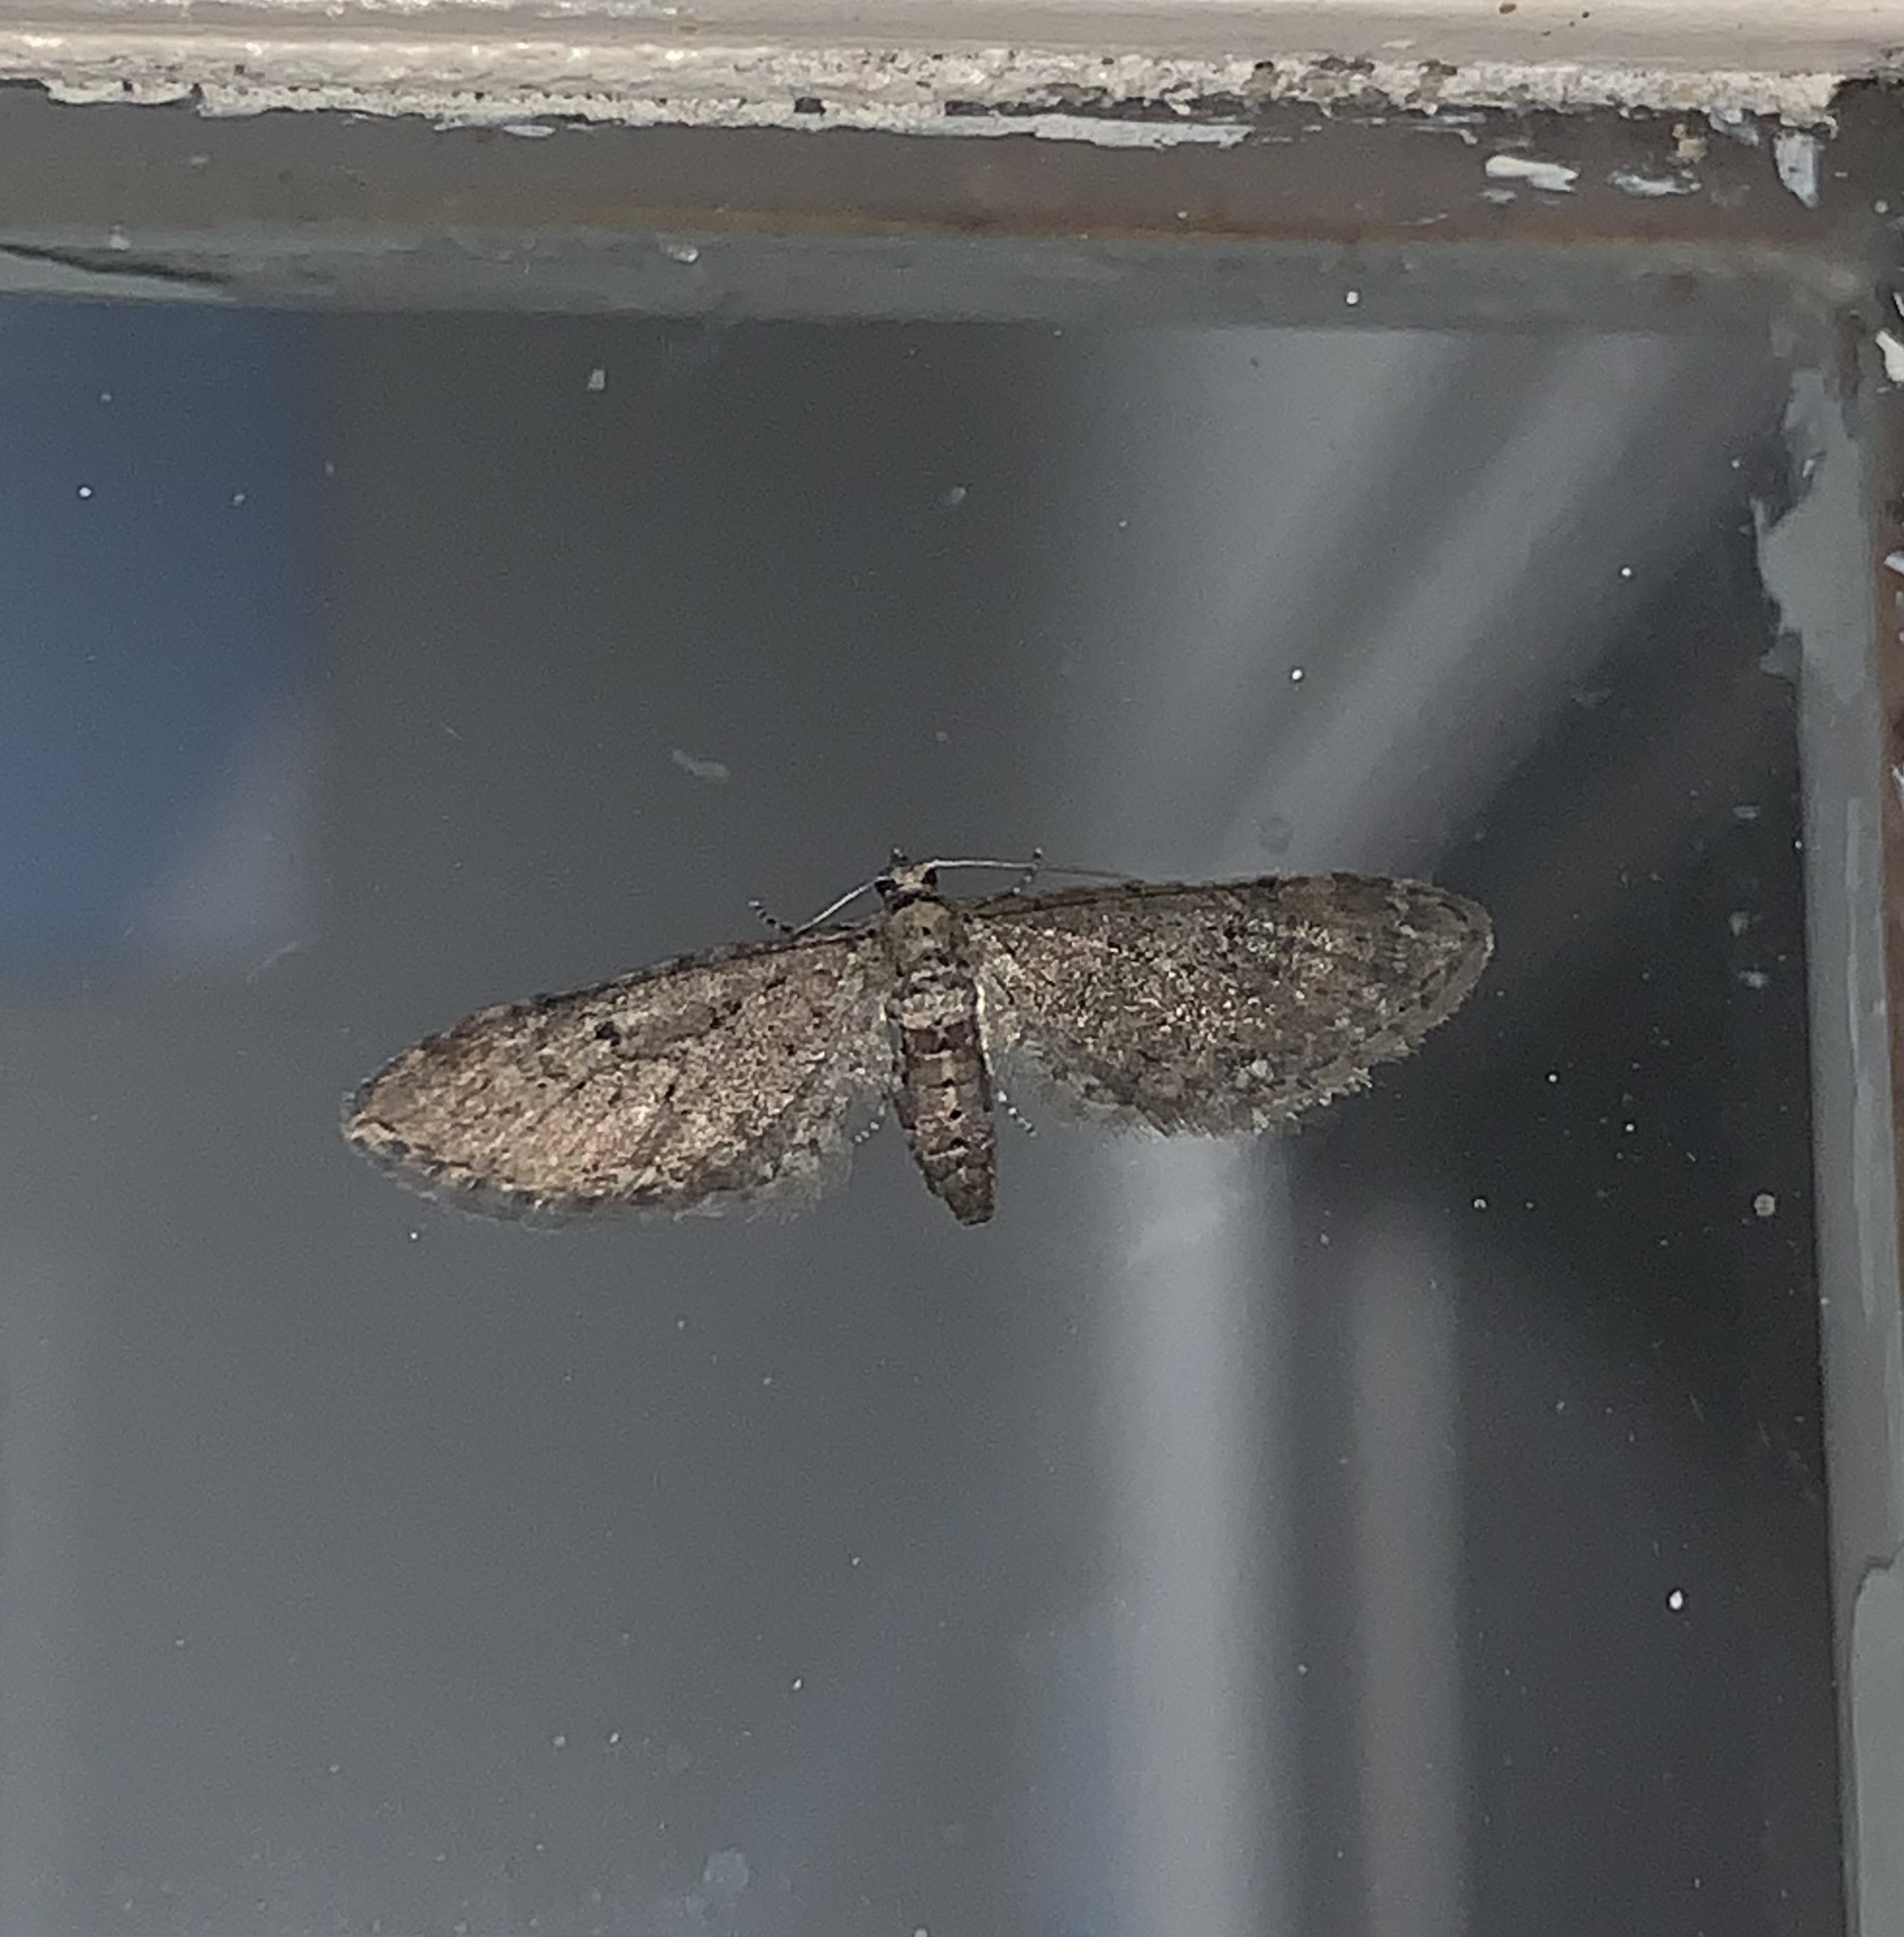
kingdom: Animalia
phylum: Arthropoda
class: Insecta
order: Lepidoptera
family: Geometridae
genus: Eupithecia
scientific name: Eupithecia miserulata
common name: Common eupithecia
